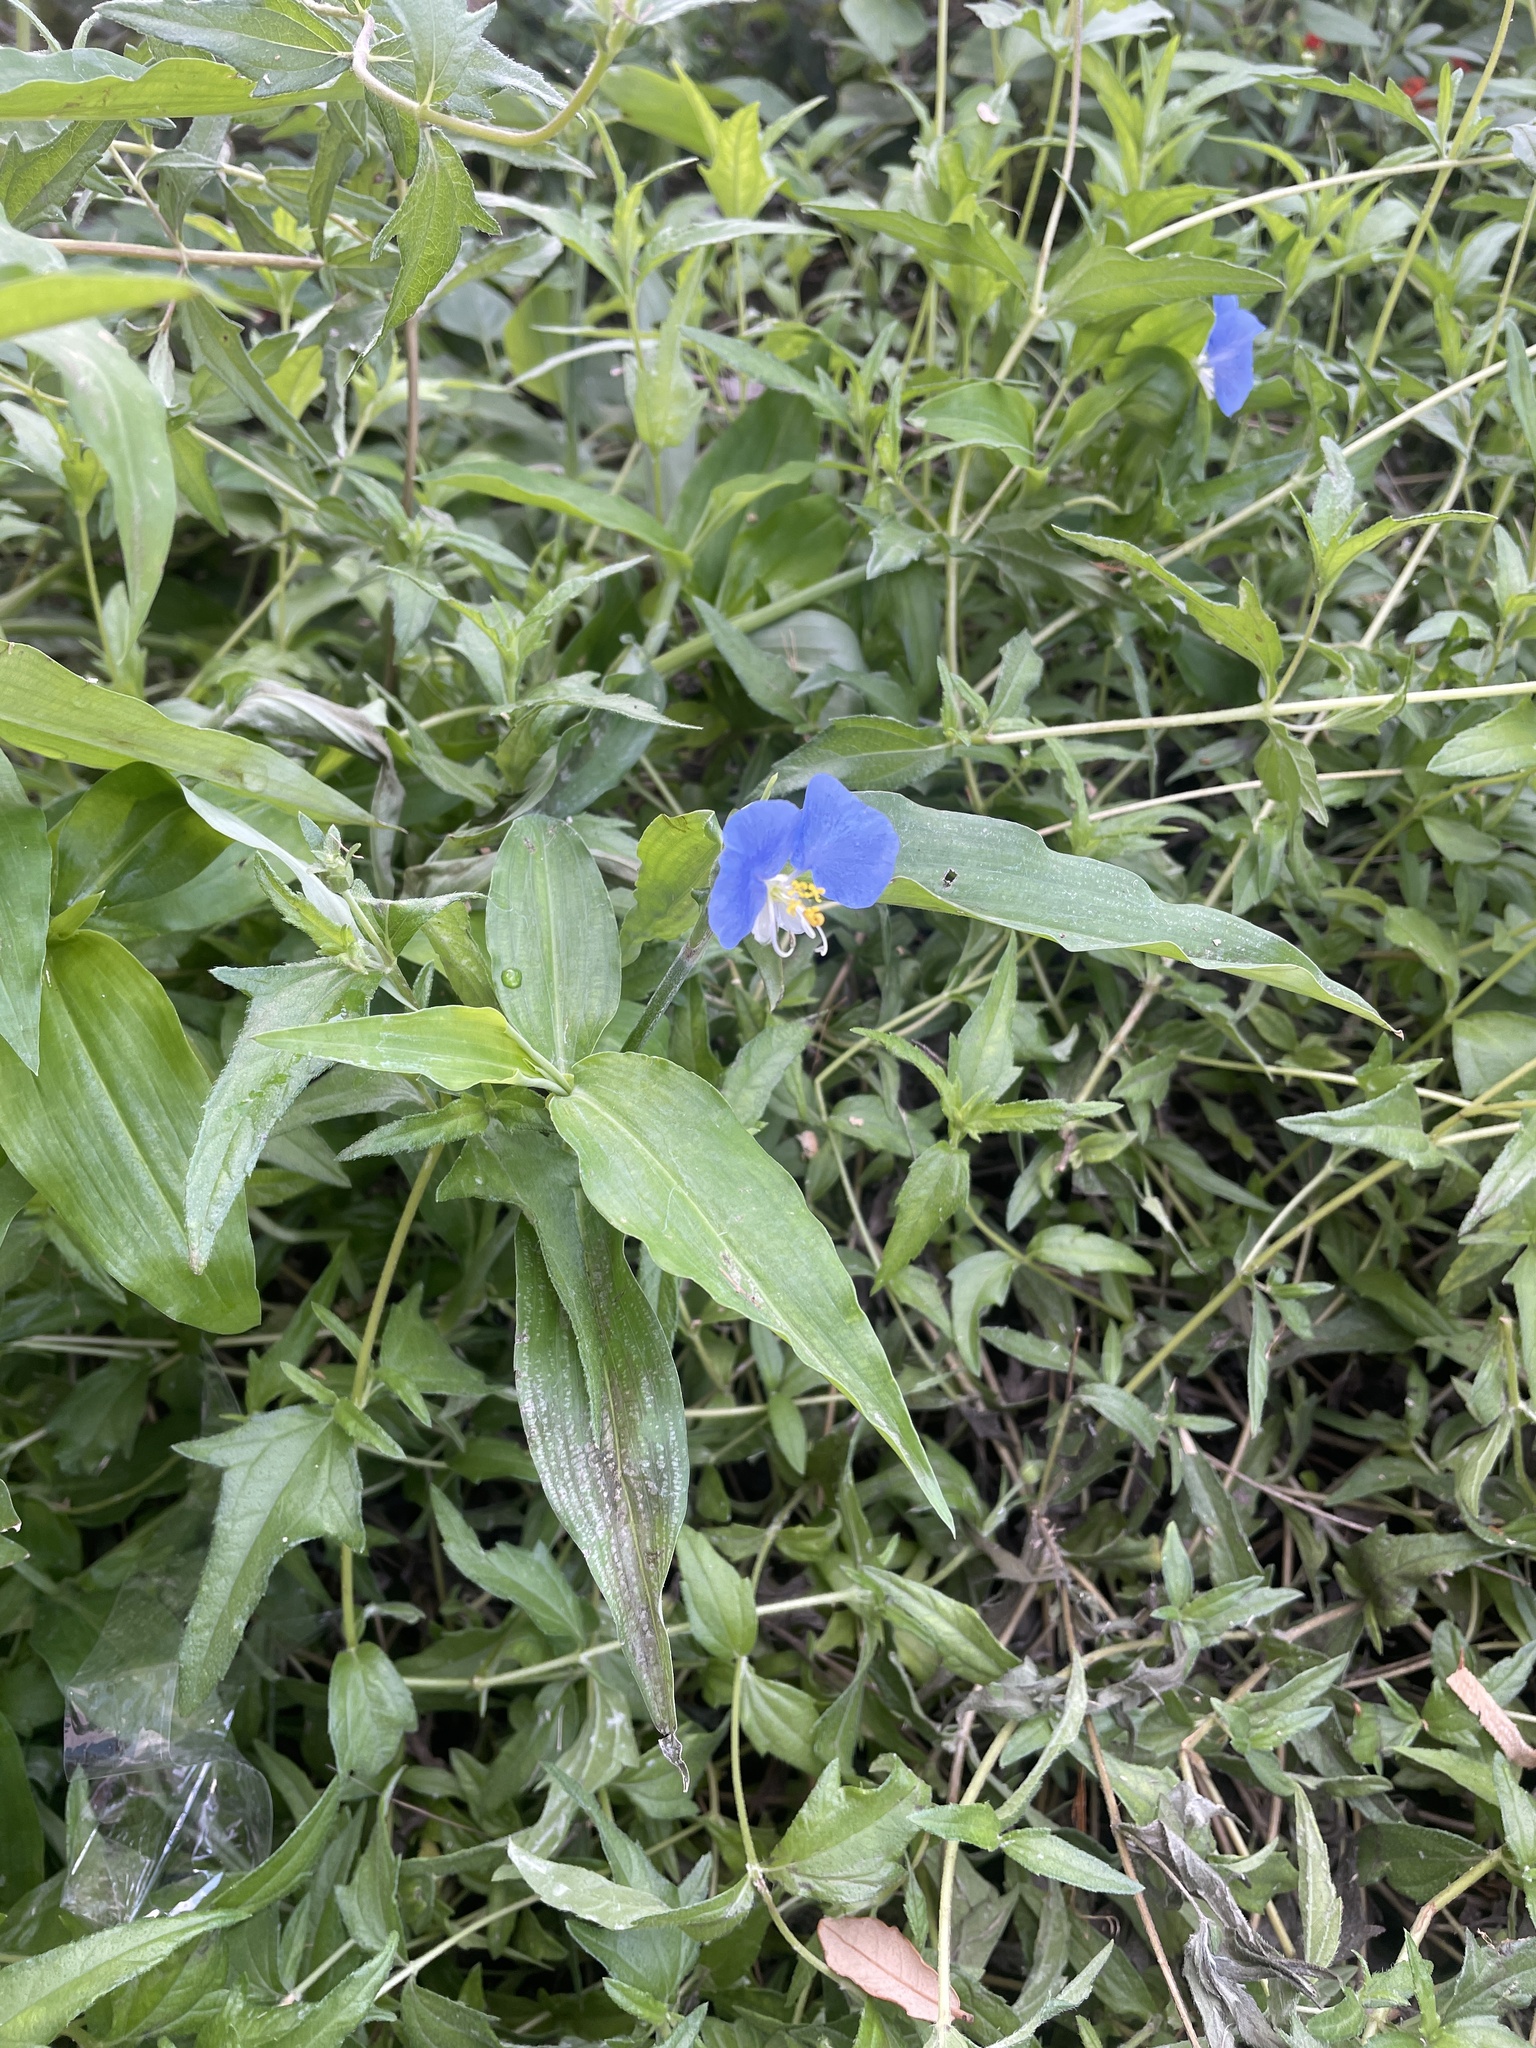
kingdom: Plantae
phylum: Tracheophyta
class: Liliopsida
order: Commelinales
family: Commelinaceae
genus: Commelina
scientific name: Commelina erecta
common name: Blousel blommetjie
